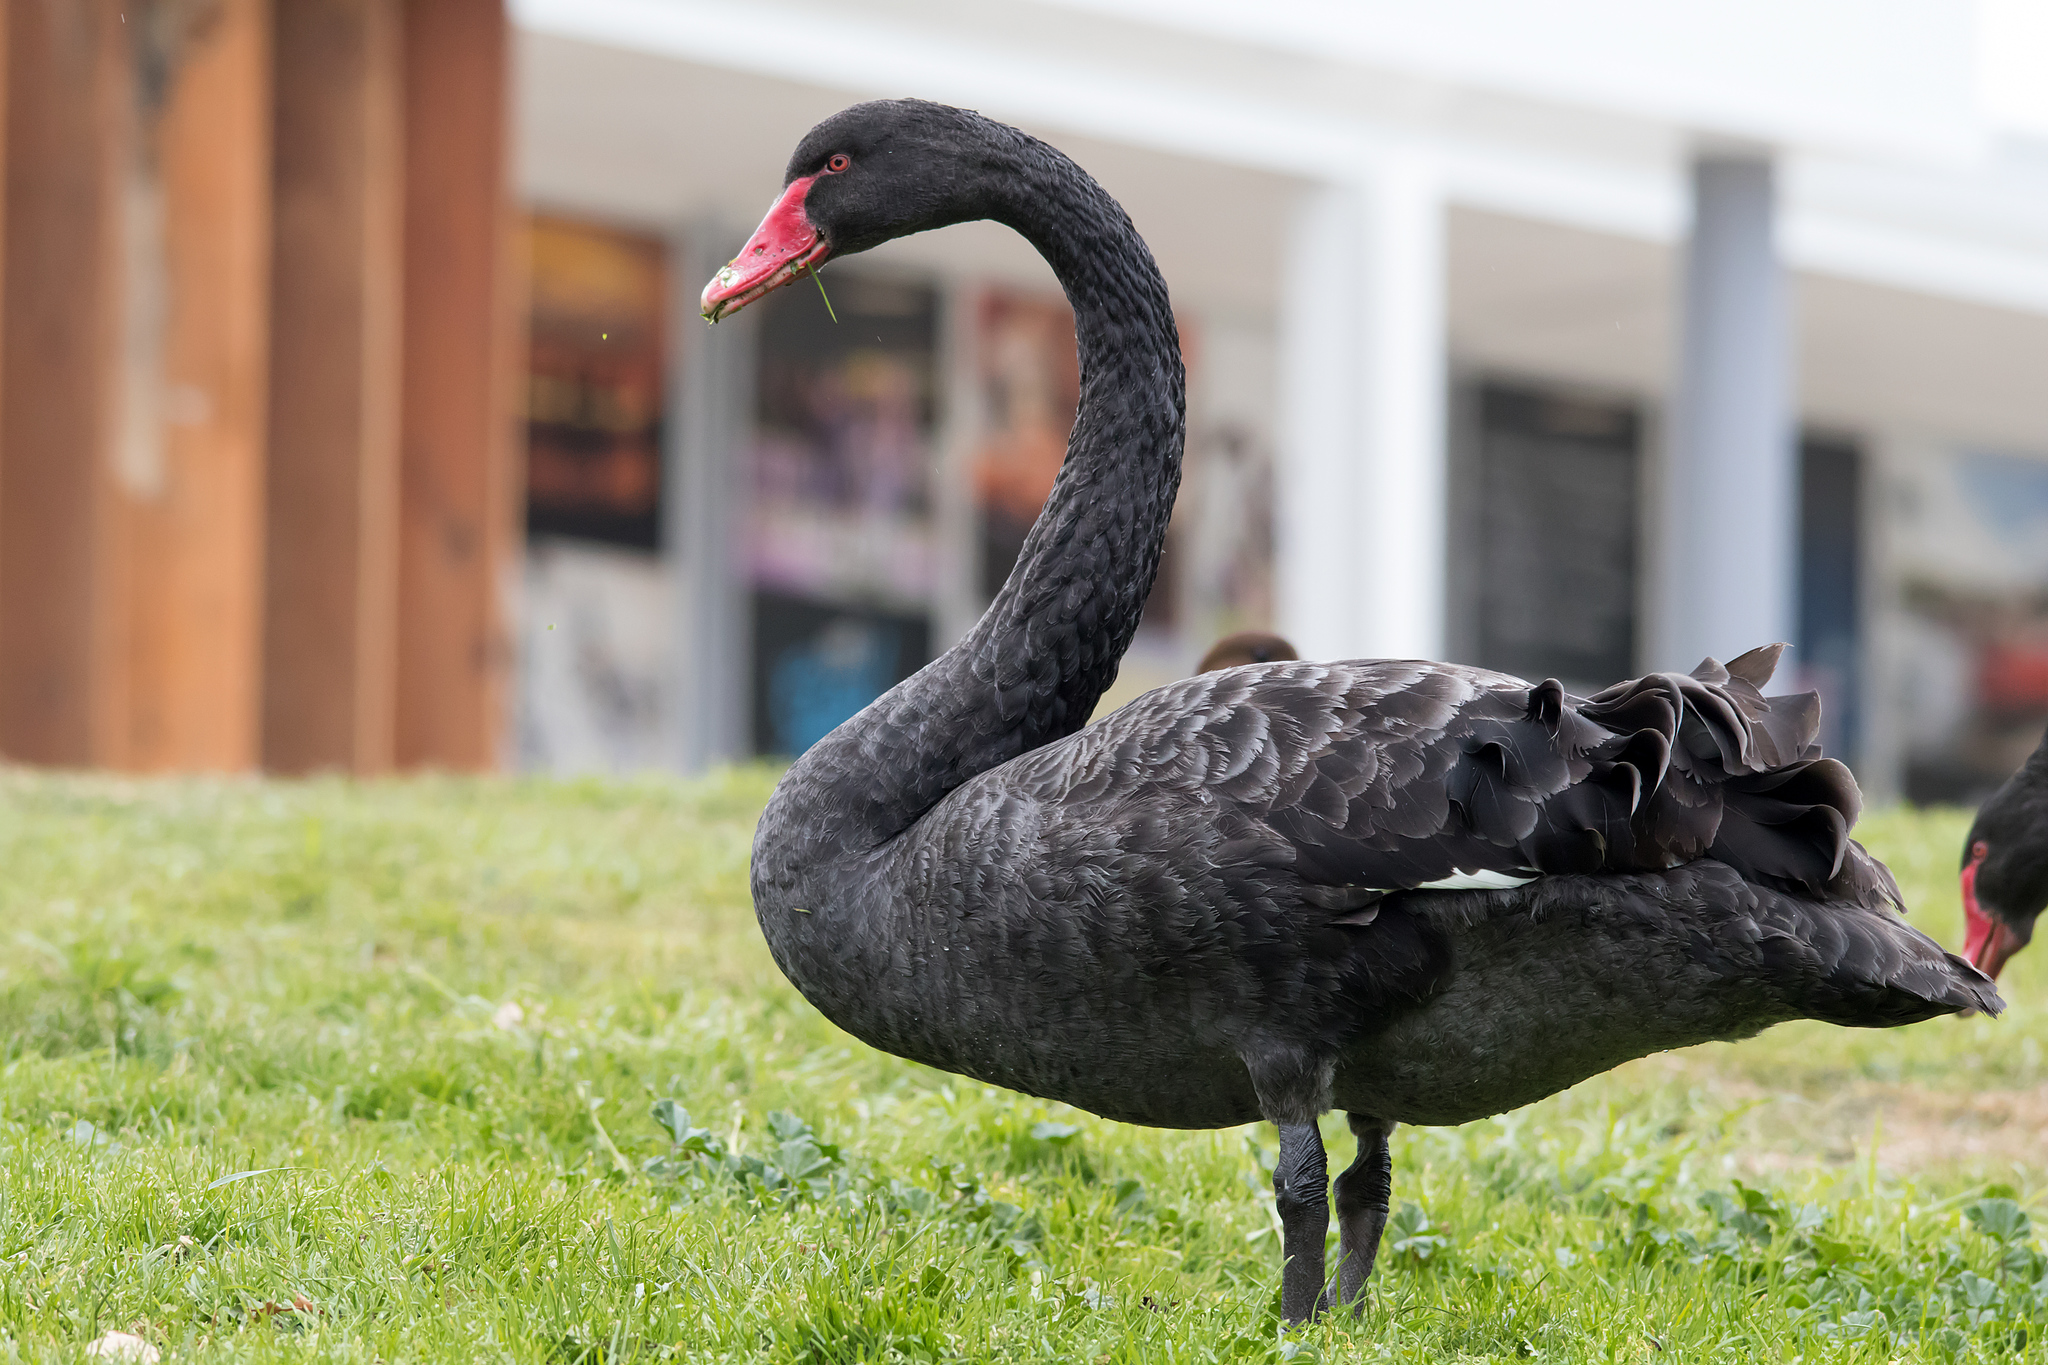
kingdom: Animalia
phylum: Chordata
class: Aves
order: Anseriformes
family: Anatidae
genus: Cygnus
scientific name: Cygnus atratus
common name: Black swan
